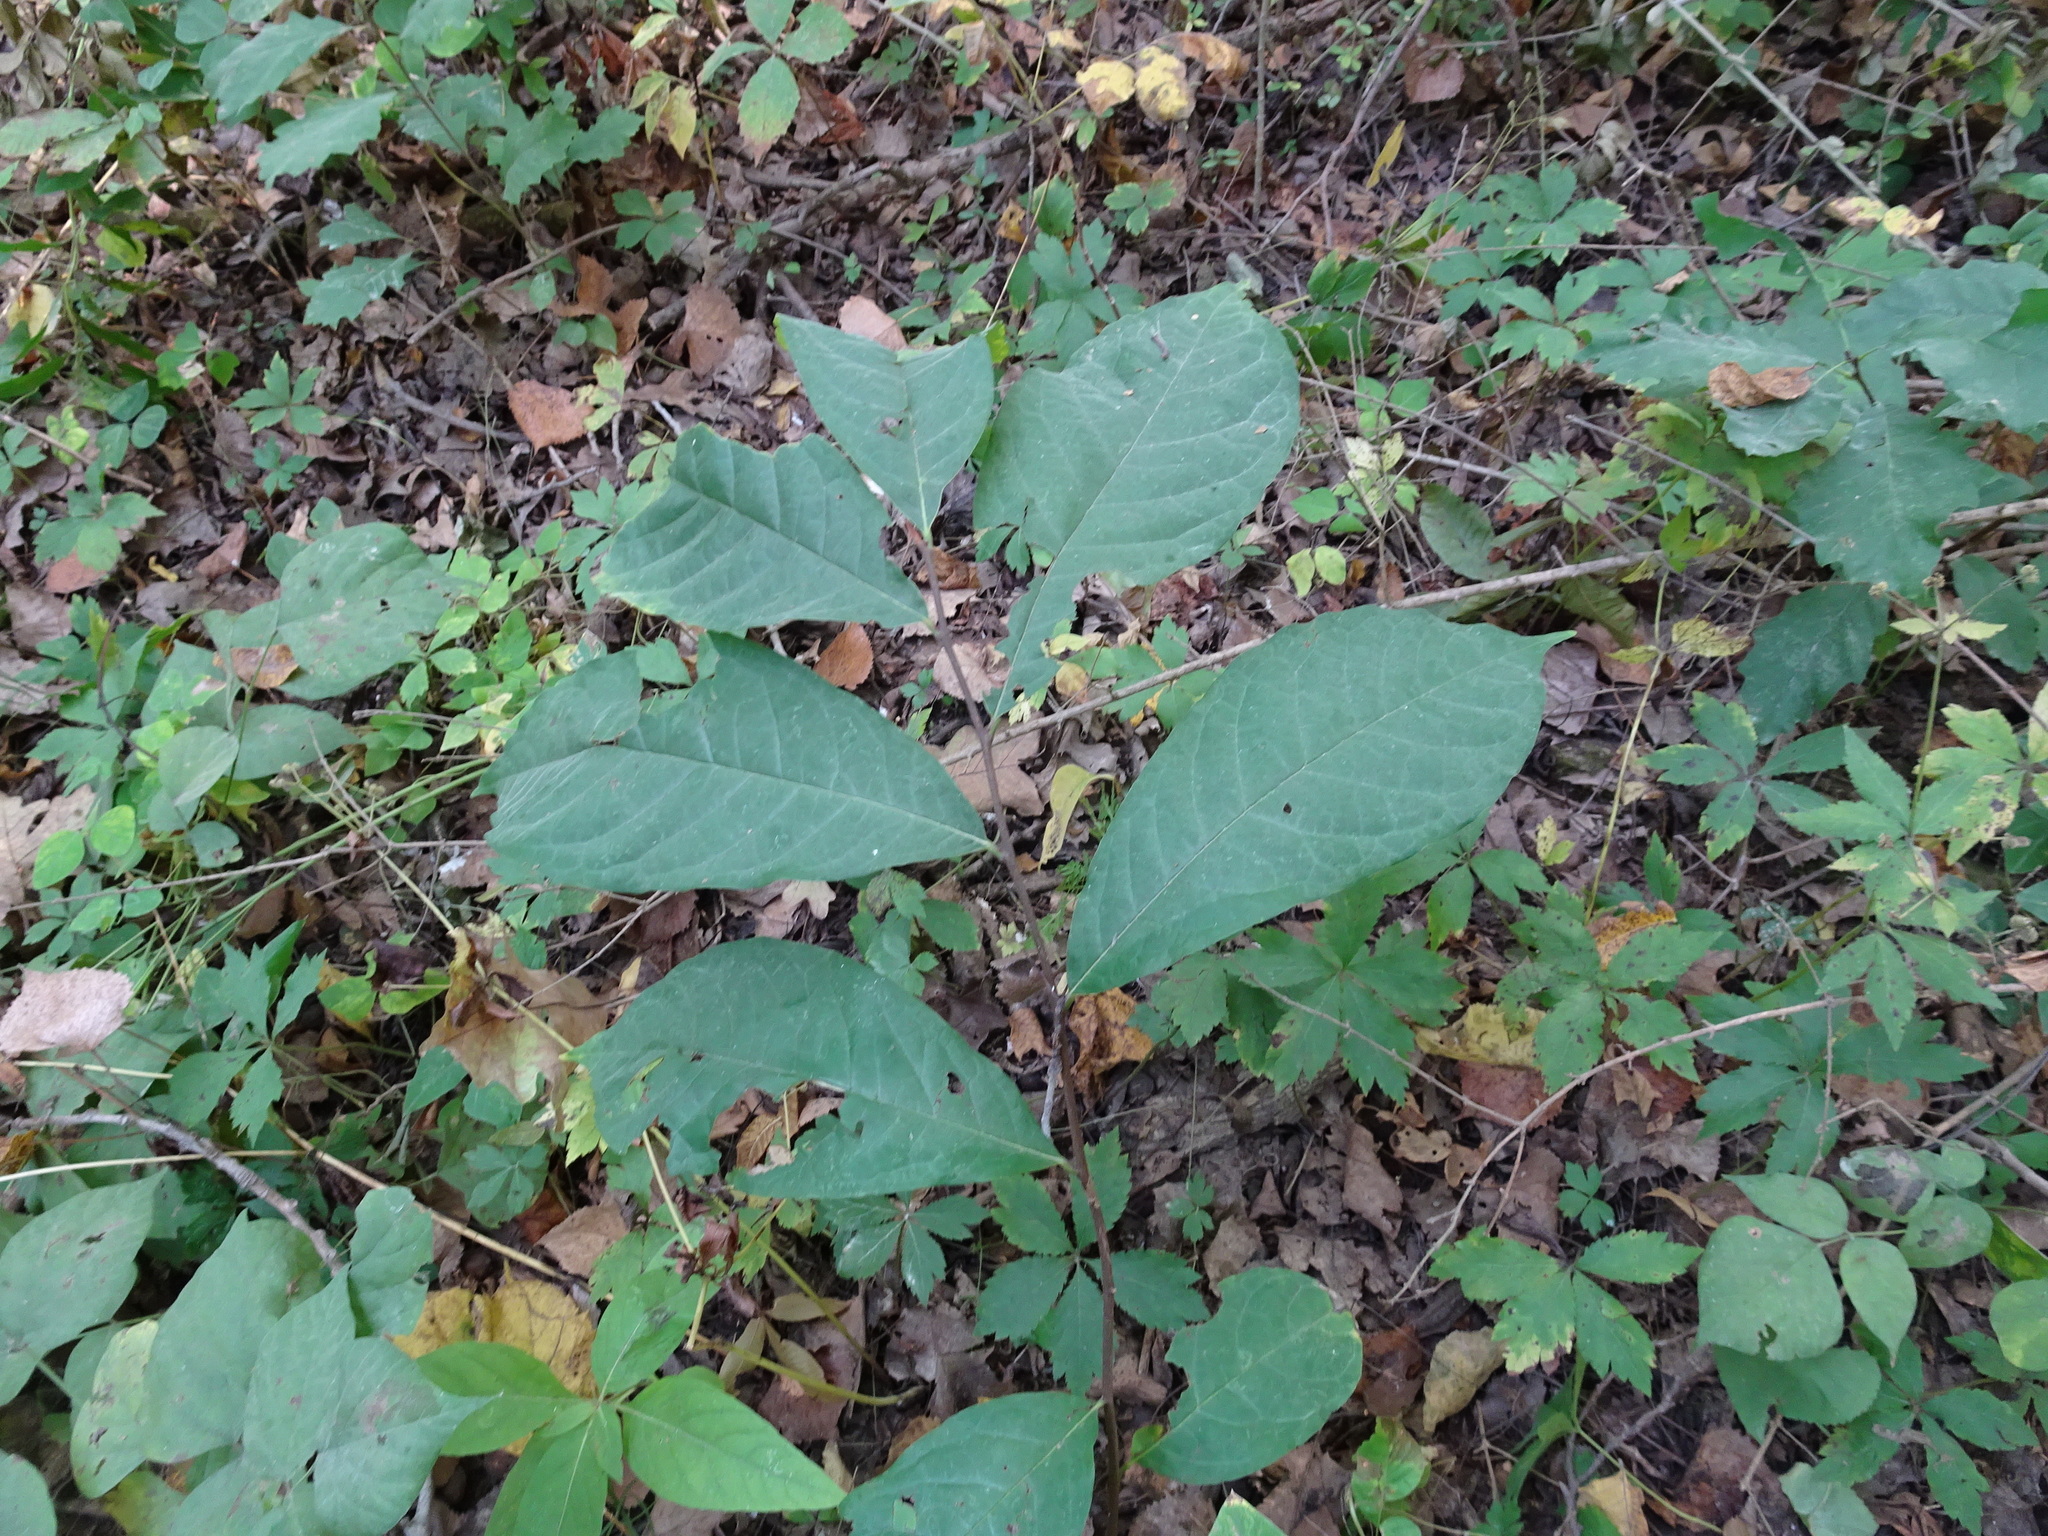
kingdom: Plantae
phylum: Tracheophyta
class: Magnoliopsida
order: Magnoliales
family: Annonaceae
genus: Asimina
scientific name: Asimina triloba
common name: Dog-banana
